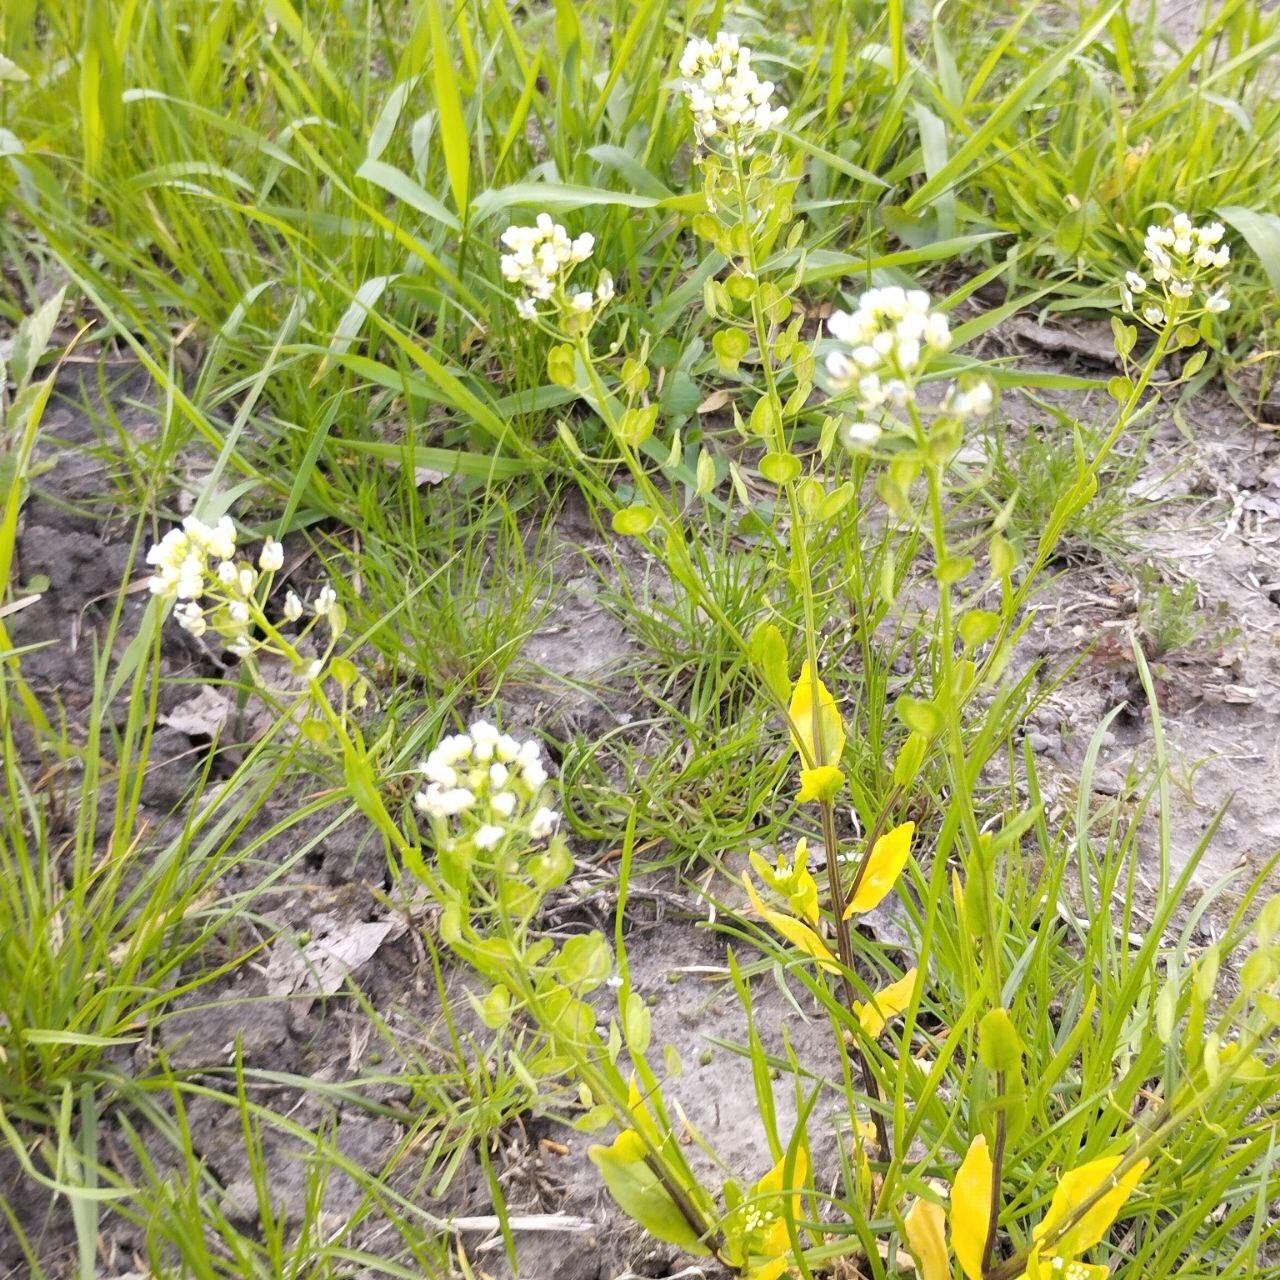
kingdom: Plantae
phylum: Tracheophyta
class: Magnoliopsida
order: Brassicales
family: Brassicaceae
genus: Thlaspi
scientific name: Thlaspi arvense
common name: Field pennycress
